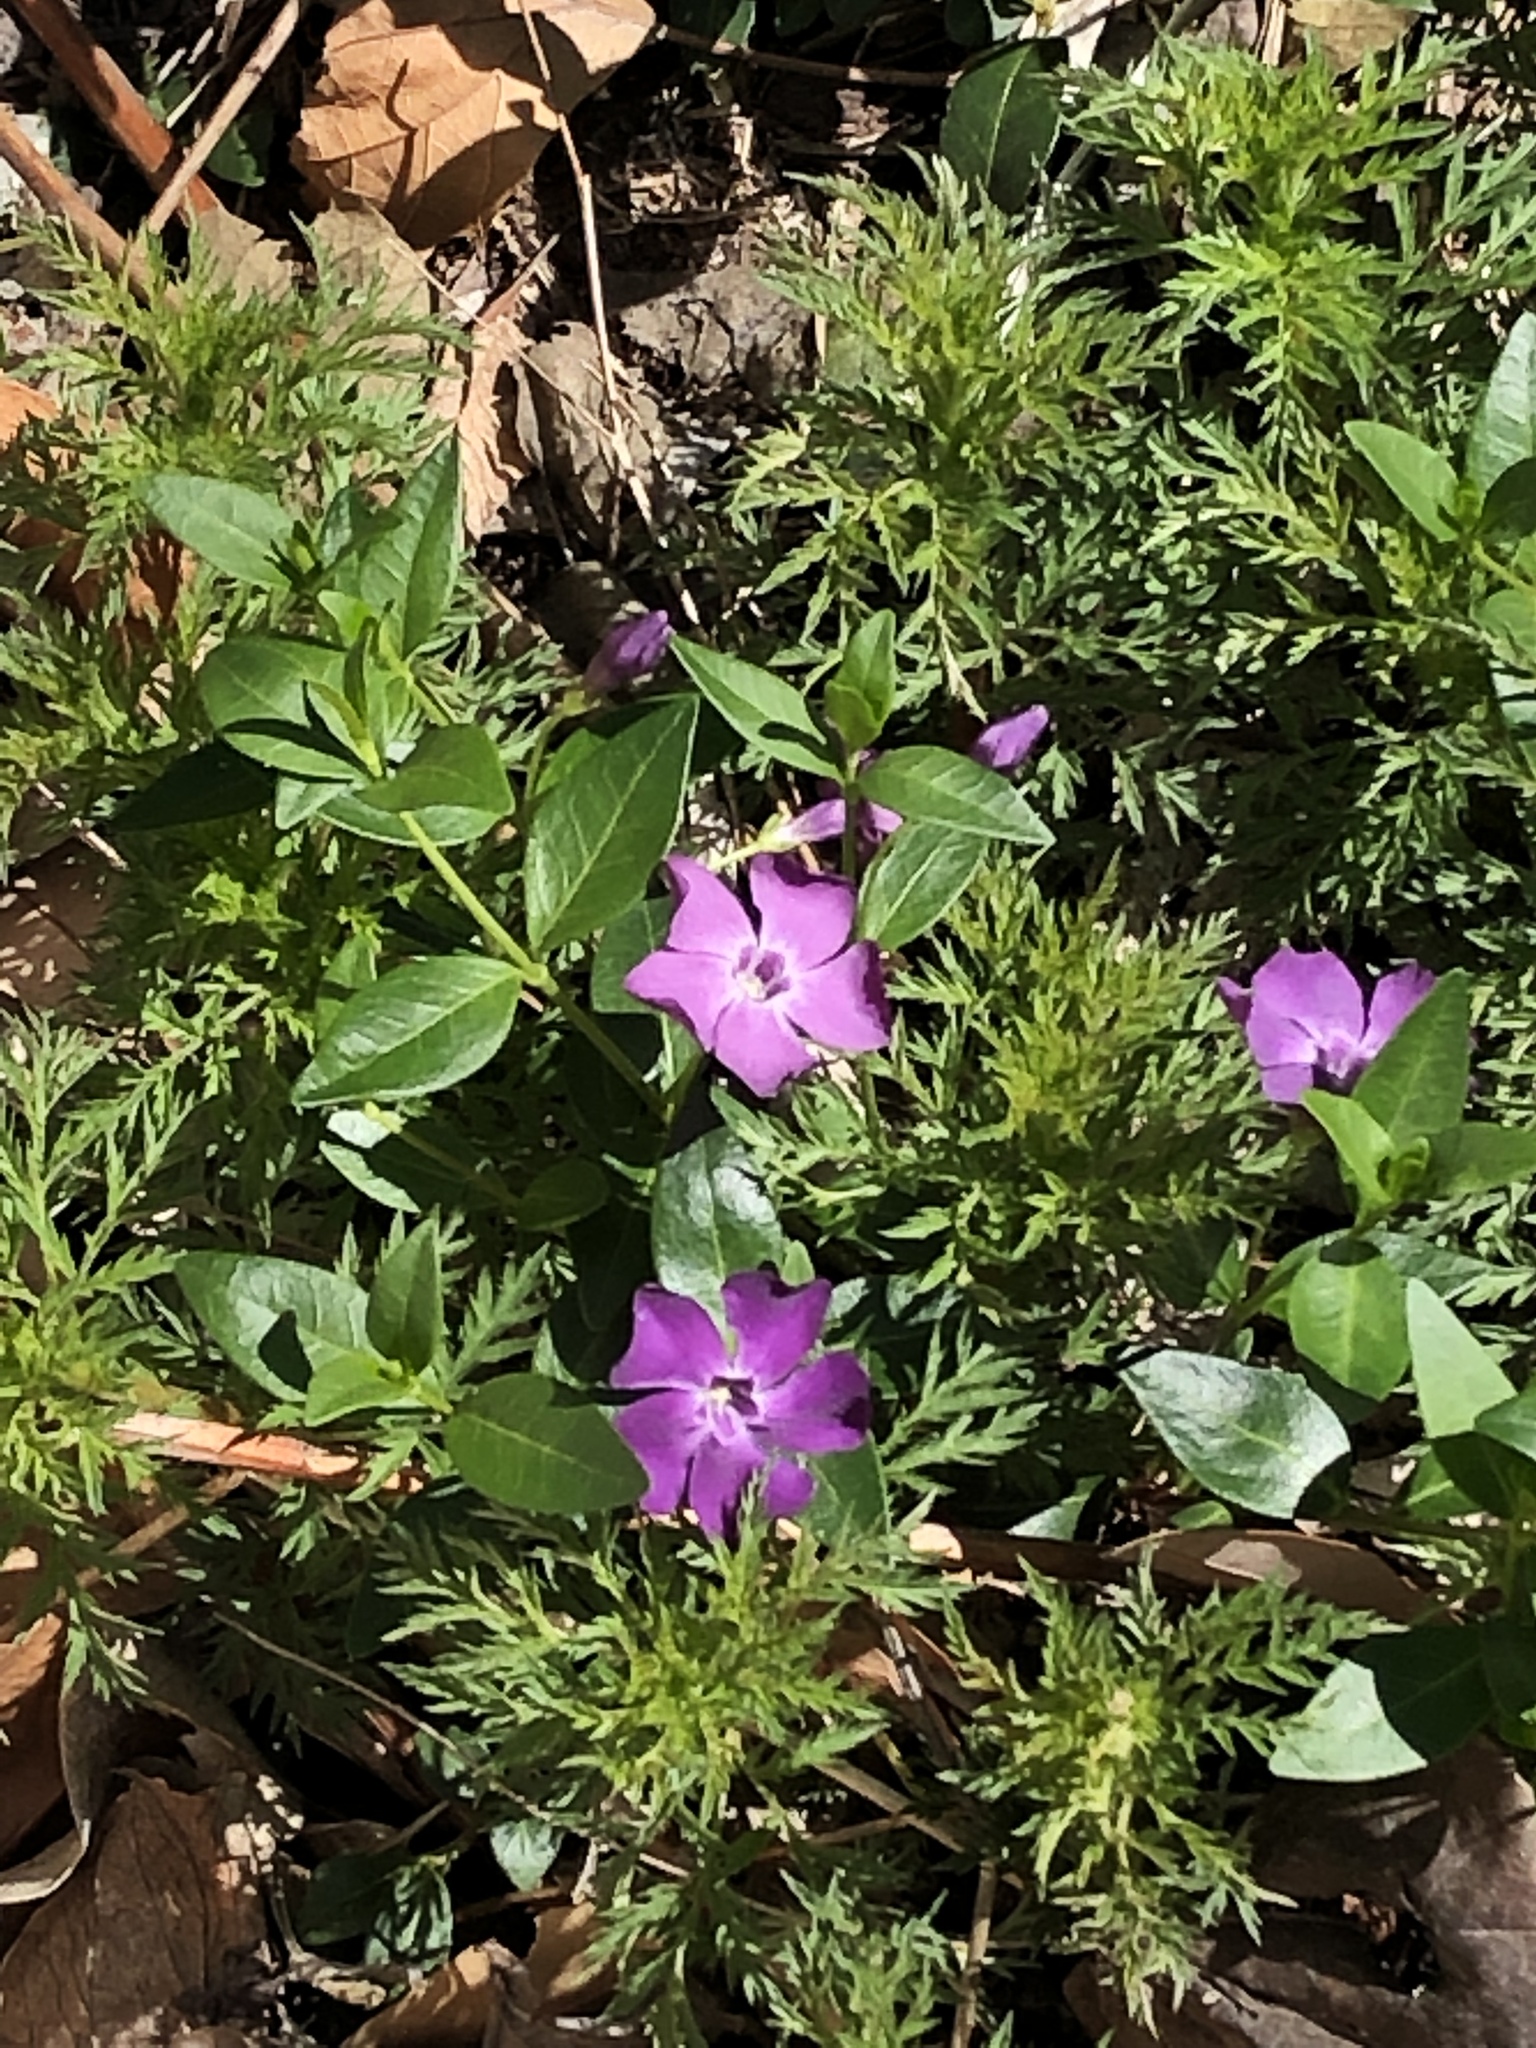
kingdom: Plantae
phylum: Tracheophyta
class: Magnoliopsida
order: Gentianales
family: Apocynaceae
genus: Vinca
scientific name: Vinca minor
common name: Lesser periwinkle
